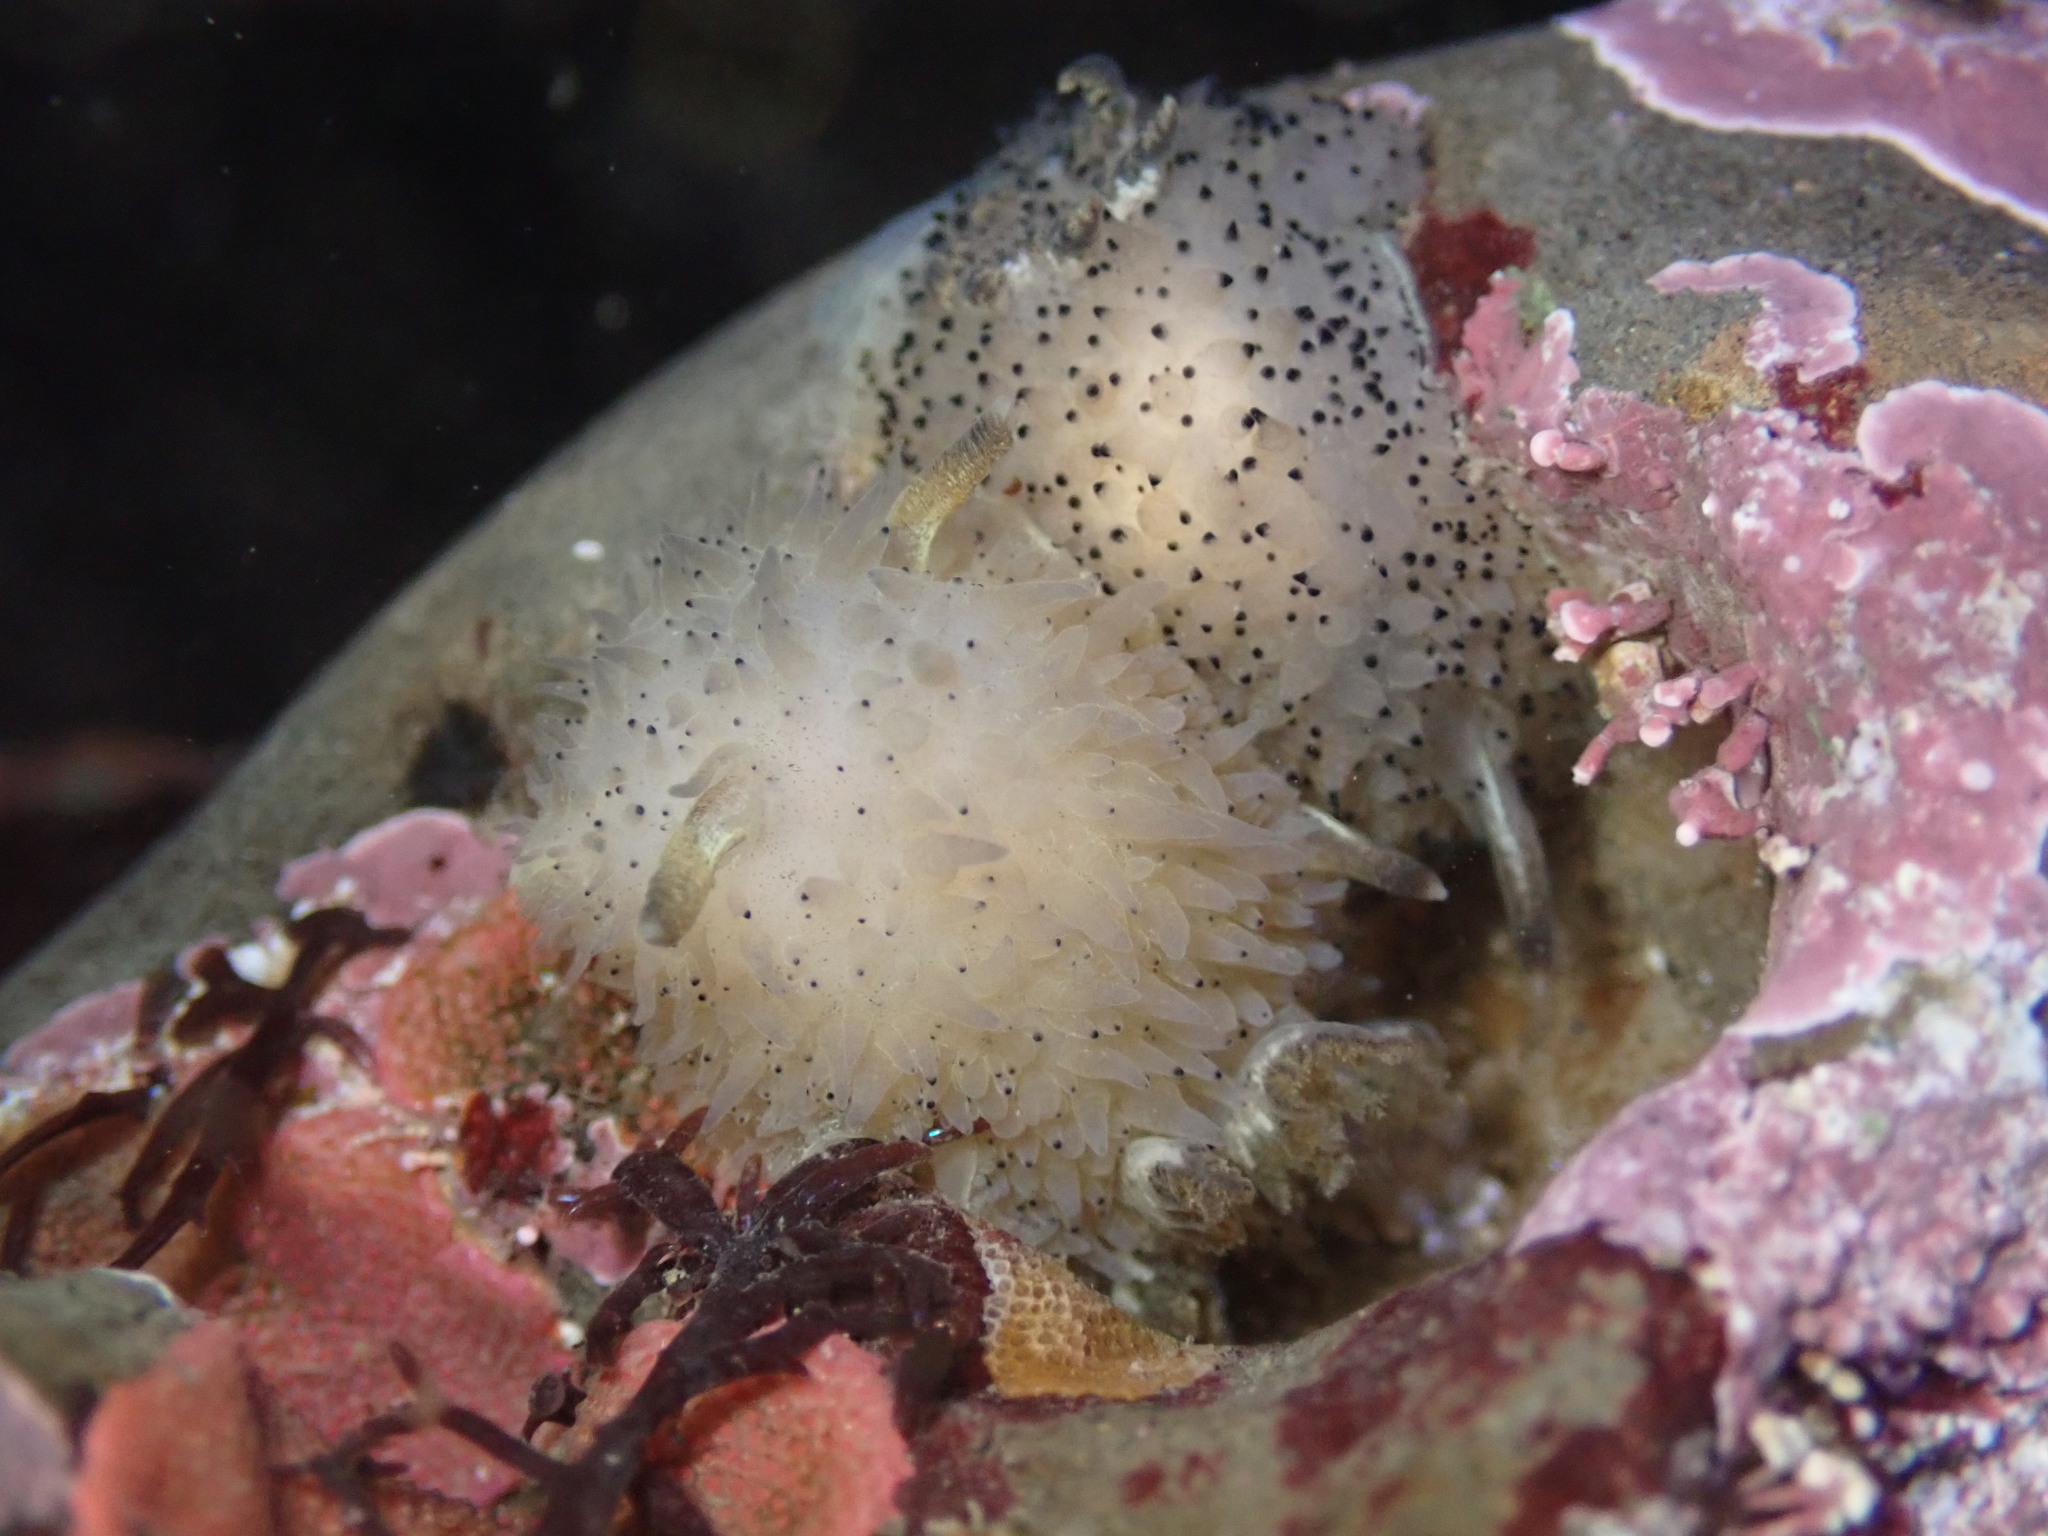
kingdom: Animalia
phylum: Mollusca
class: Gastropoda
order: Nudibranchia
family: Onchidorididae
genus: Acanthodoris
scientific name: Acanthodoris rhodoceras
